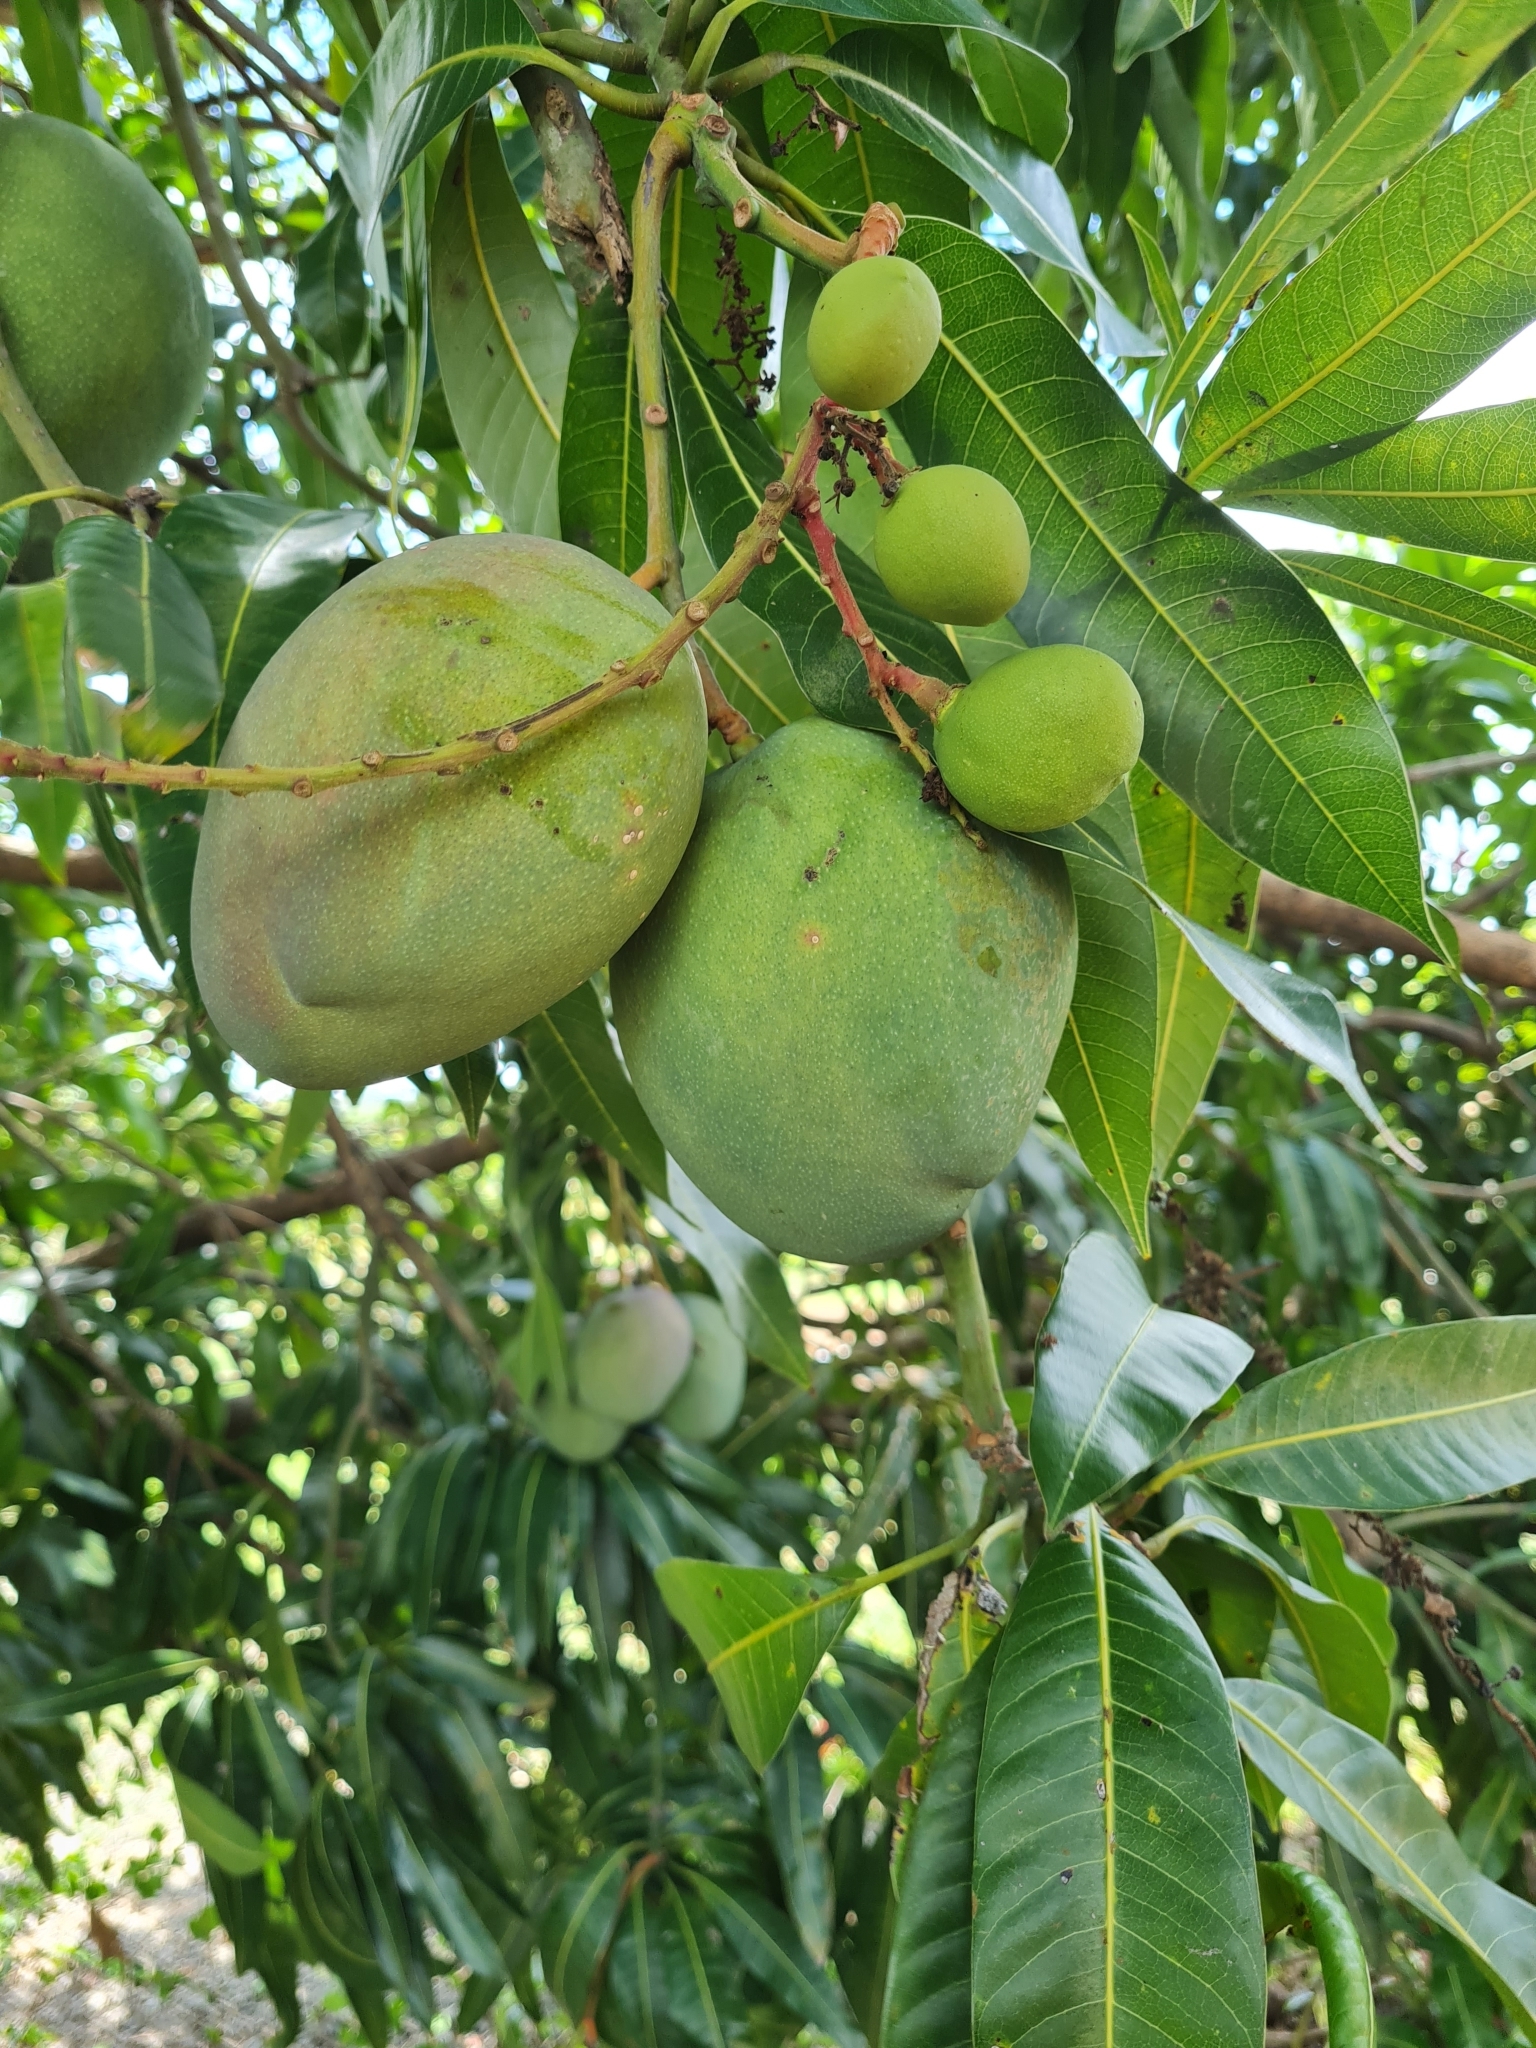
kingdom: Plantae
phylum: Tracheophyta
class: Magnoliopsida
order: Sapindales
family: Anacardiaceae
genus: Mangifera
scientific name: Mangifera indica
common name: Mango
